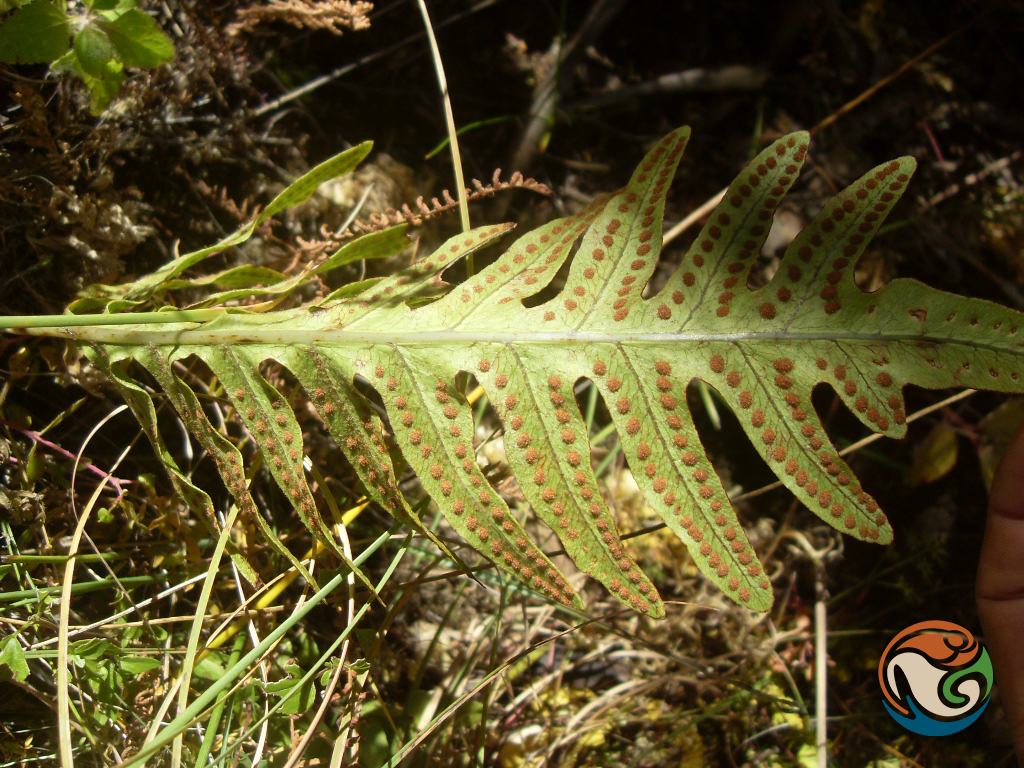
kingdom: Plantae
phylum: Tracheophyta
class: Polypodiopsida
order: Polypodiales
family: Polypodiaceae
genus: Phlebodium
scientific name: Phlebodium pseudoaureum
